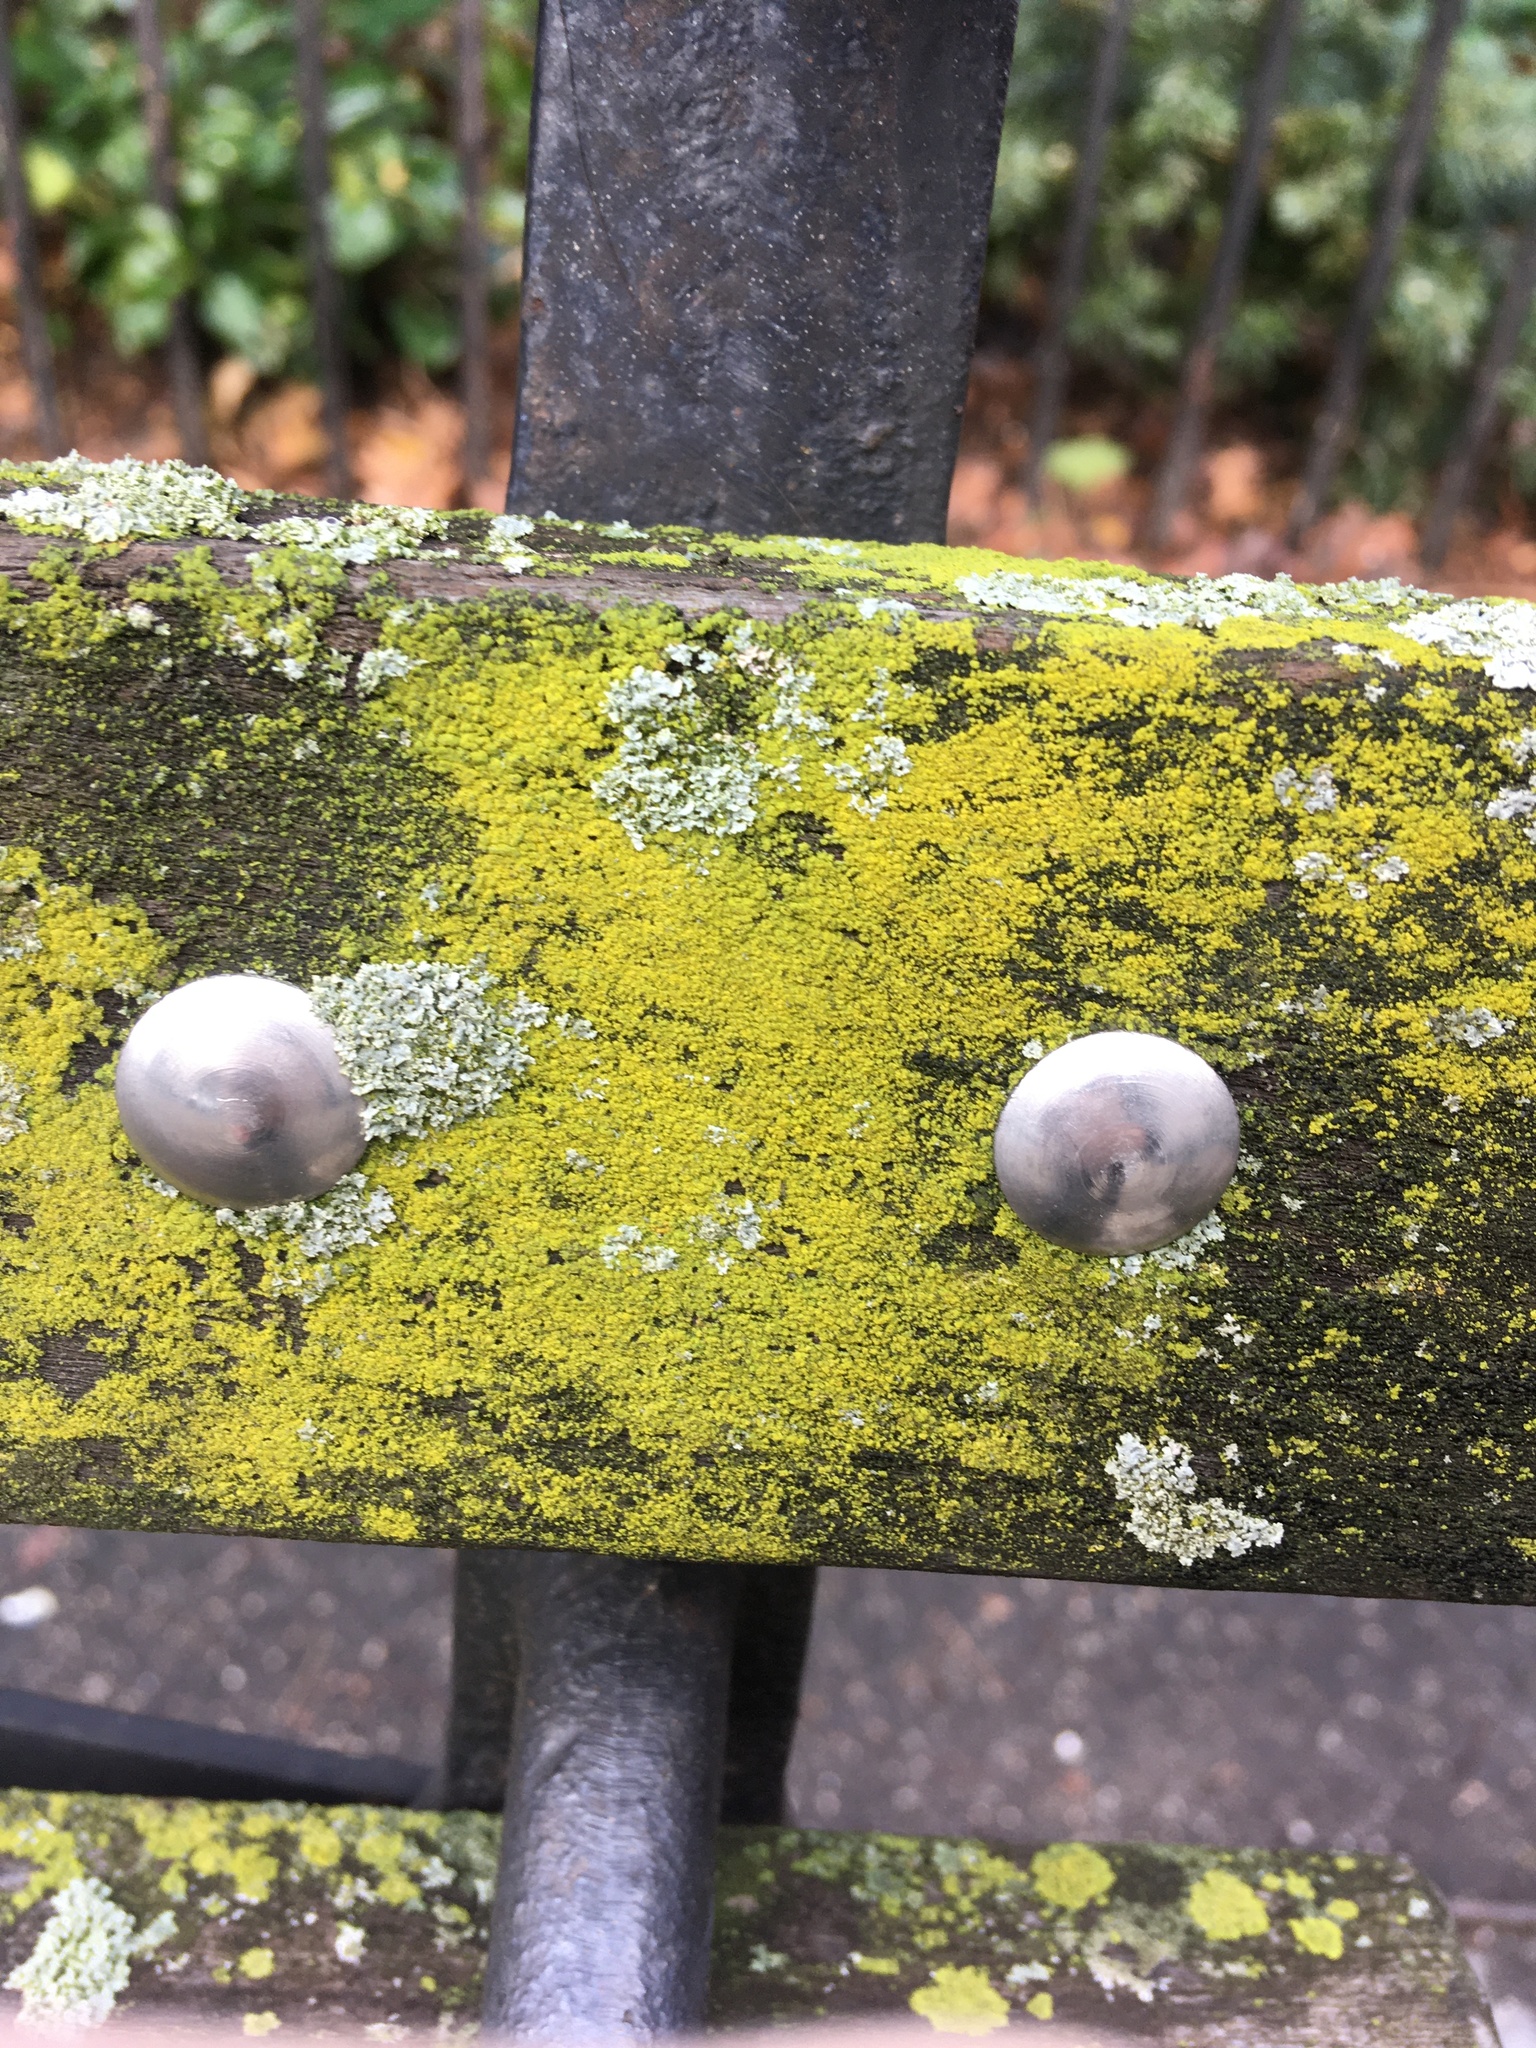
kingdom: Fungi
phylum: Ascomycota
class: Candelariomycetes
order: Candelariales
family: Candelariaceae
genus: Candelaria
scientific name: Candelaria concolor
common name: Candleflame lichen
